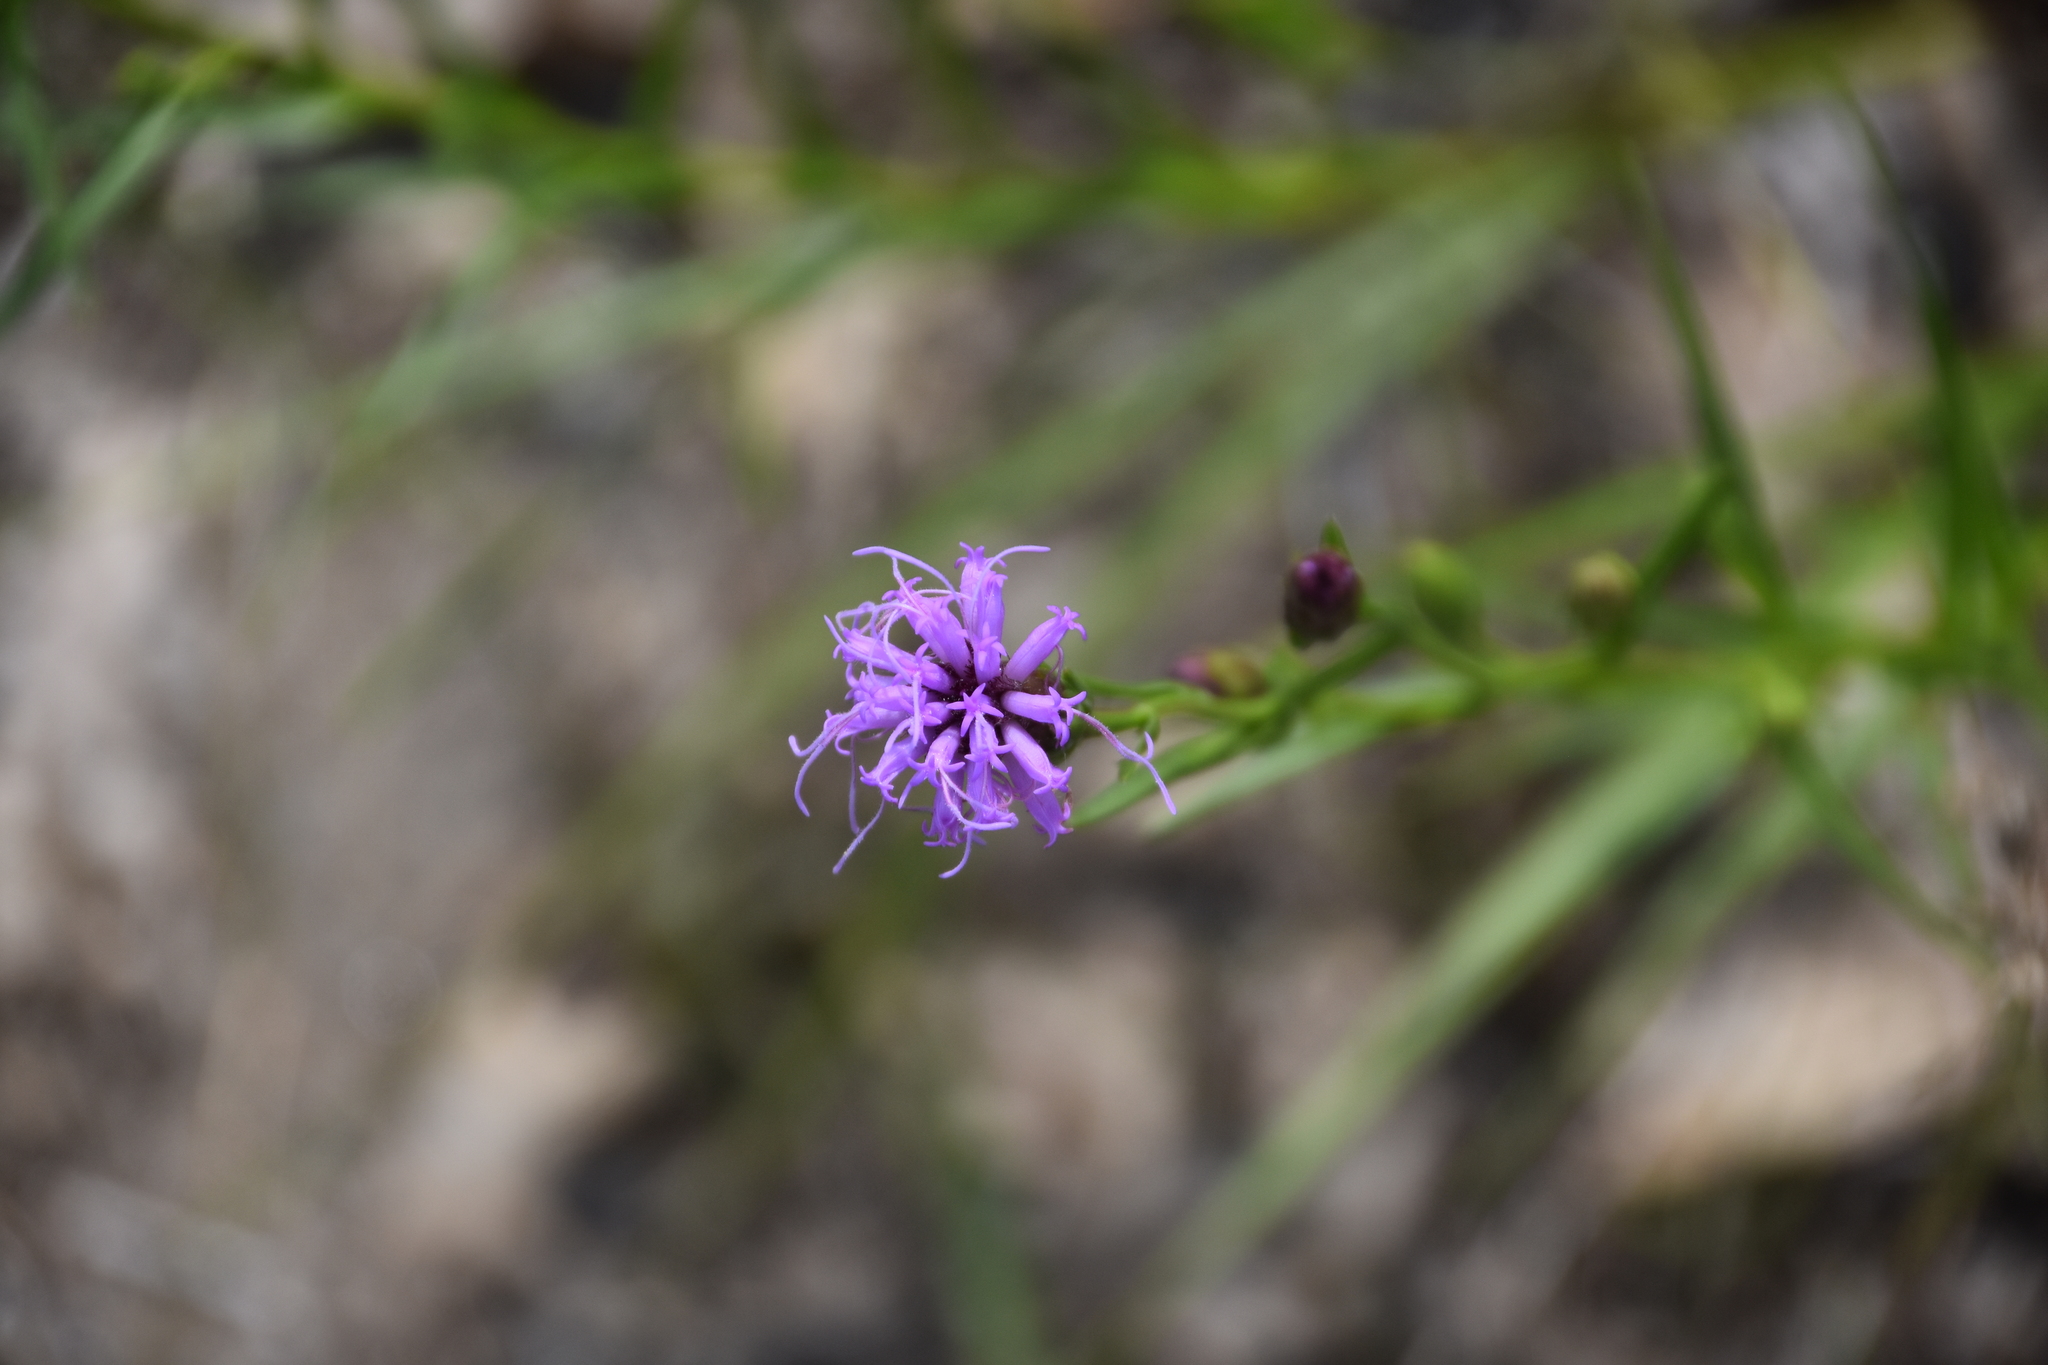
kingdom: Plantae
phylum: Tracheophyta
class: Magnoliopsida
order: Asterales
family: Asteraceae
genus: Liatris
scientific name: Liatris cylindracea
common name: Few-head blazingstar
